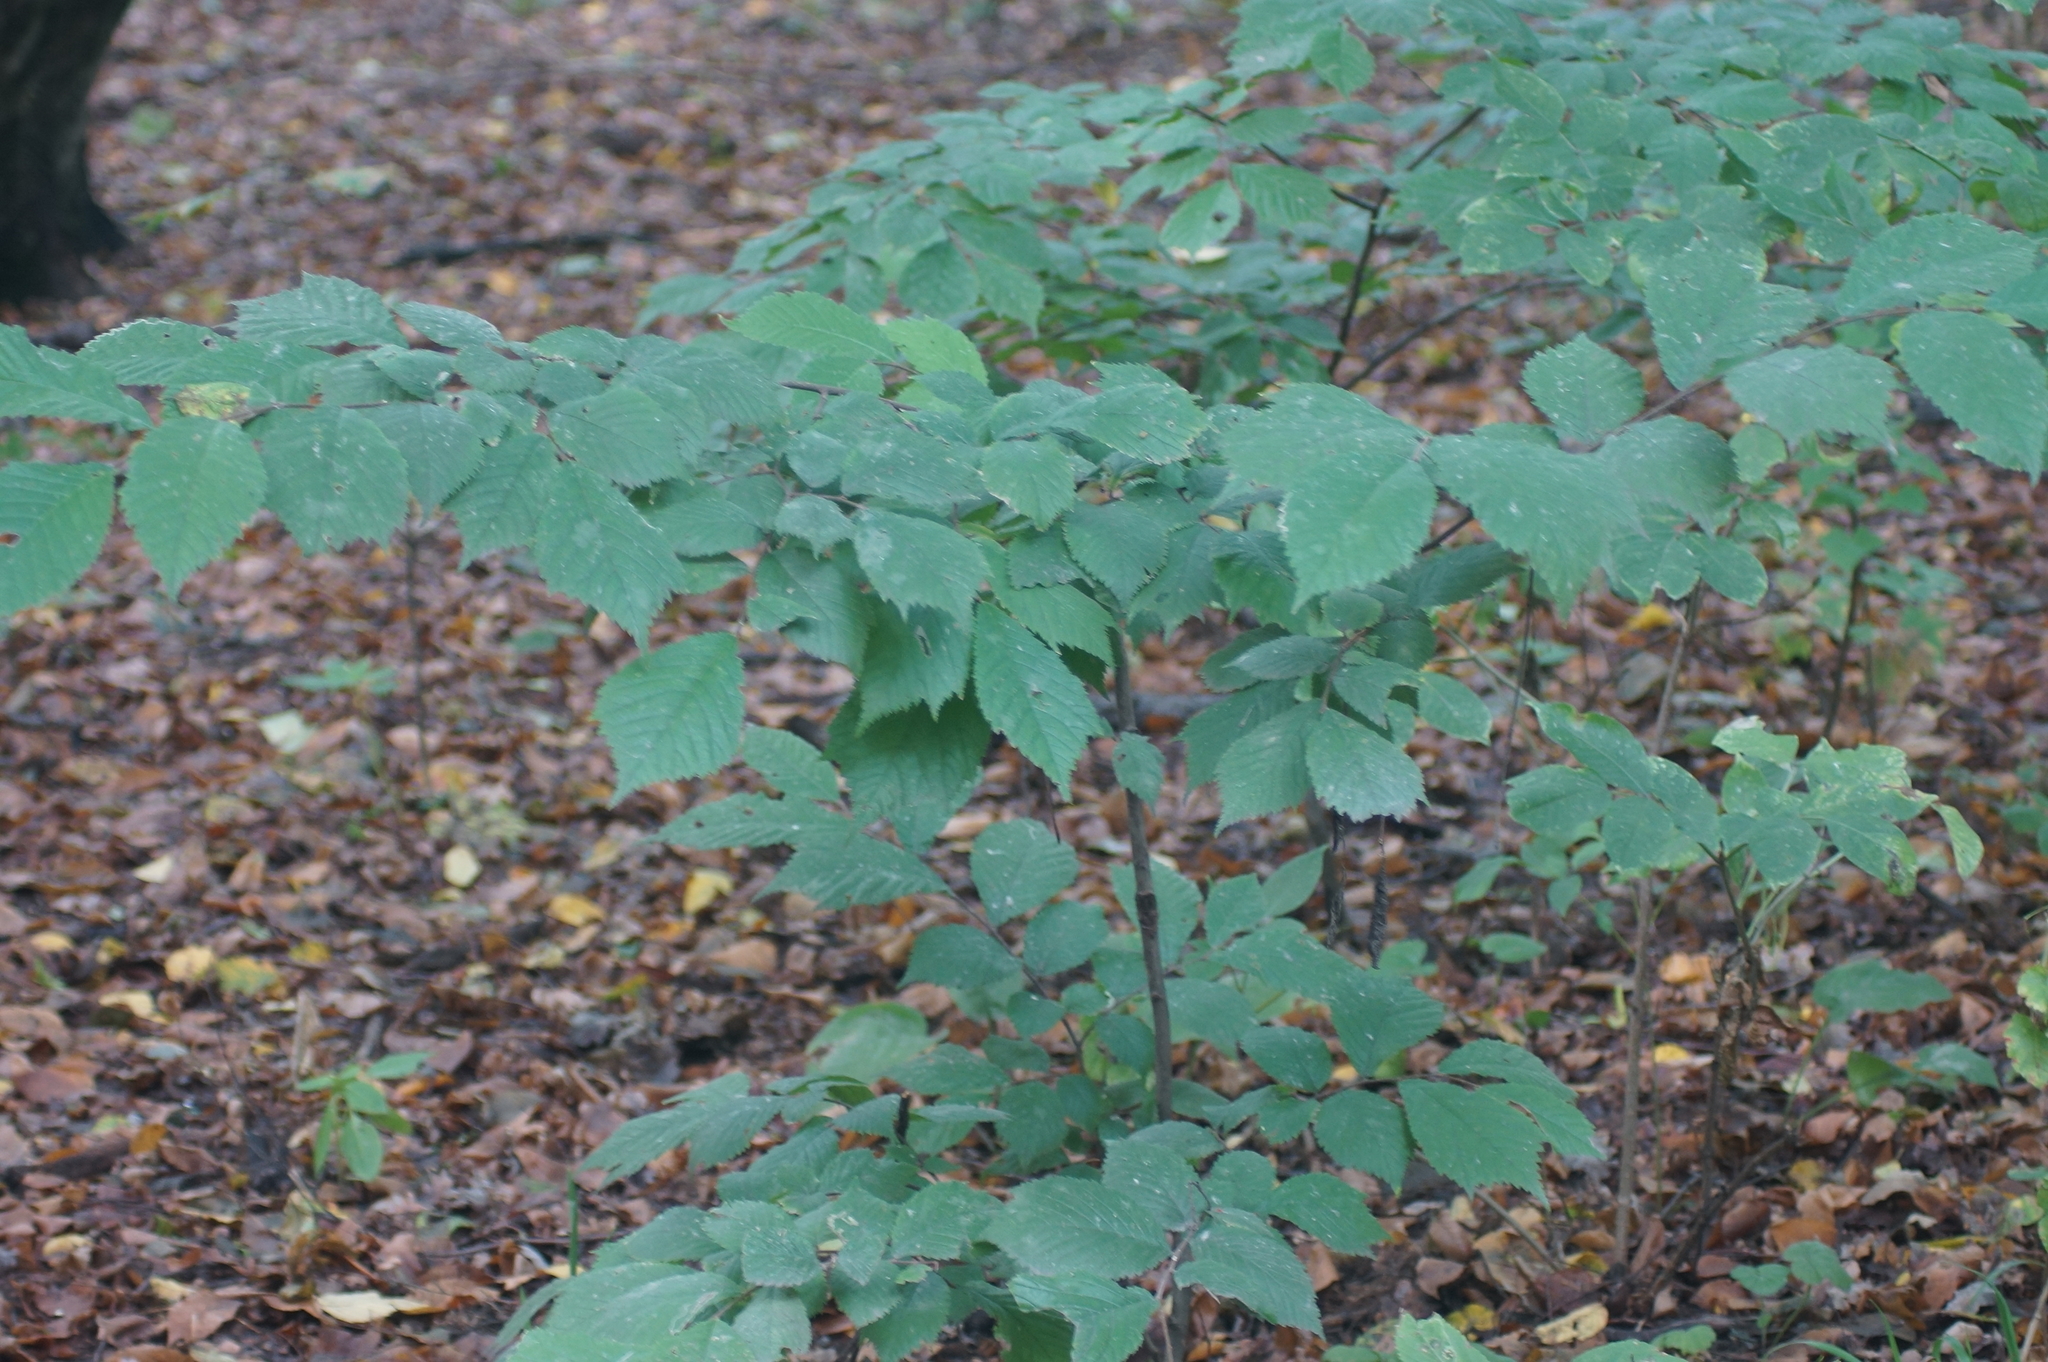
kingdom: Plantae
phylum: Tracheophyta
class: Magnoliopsida
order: Rosales
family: Ulmaceae
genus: Ulmus
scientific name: Ulmus glabra
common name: Wych elm
